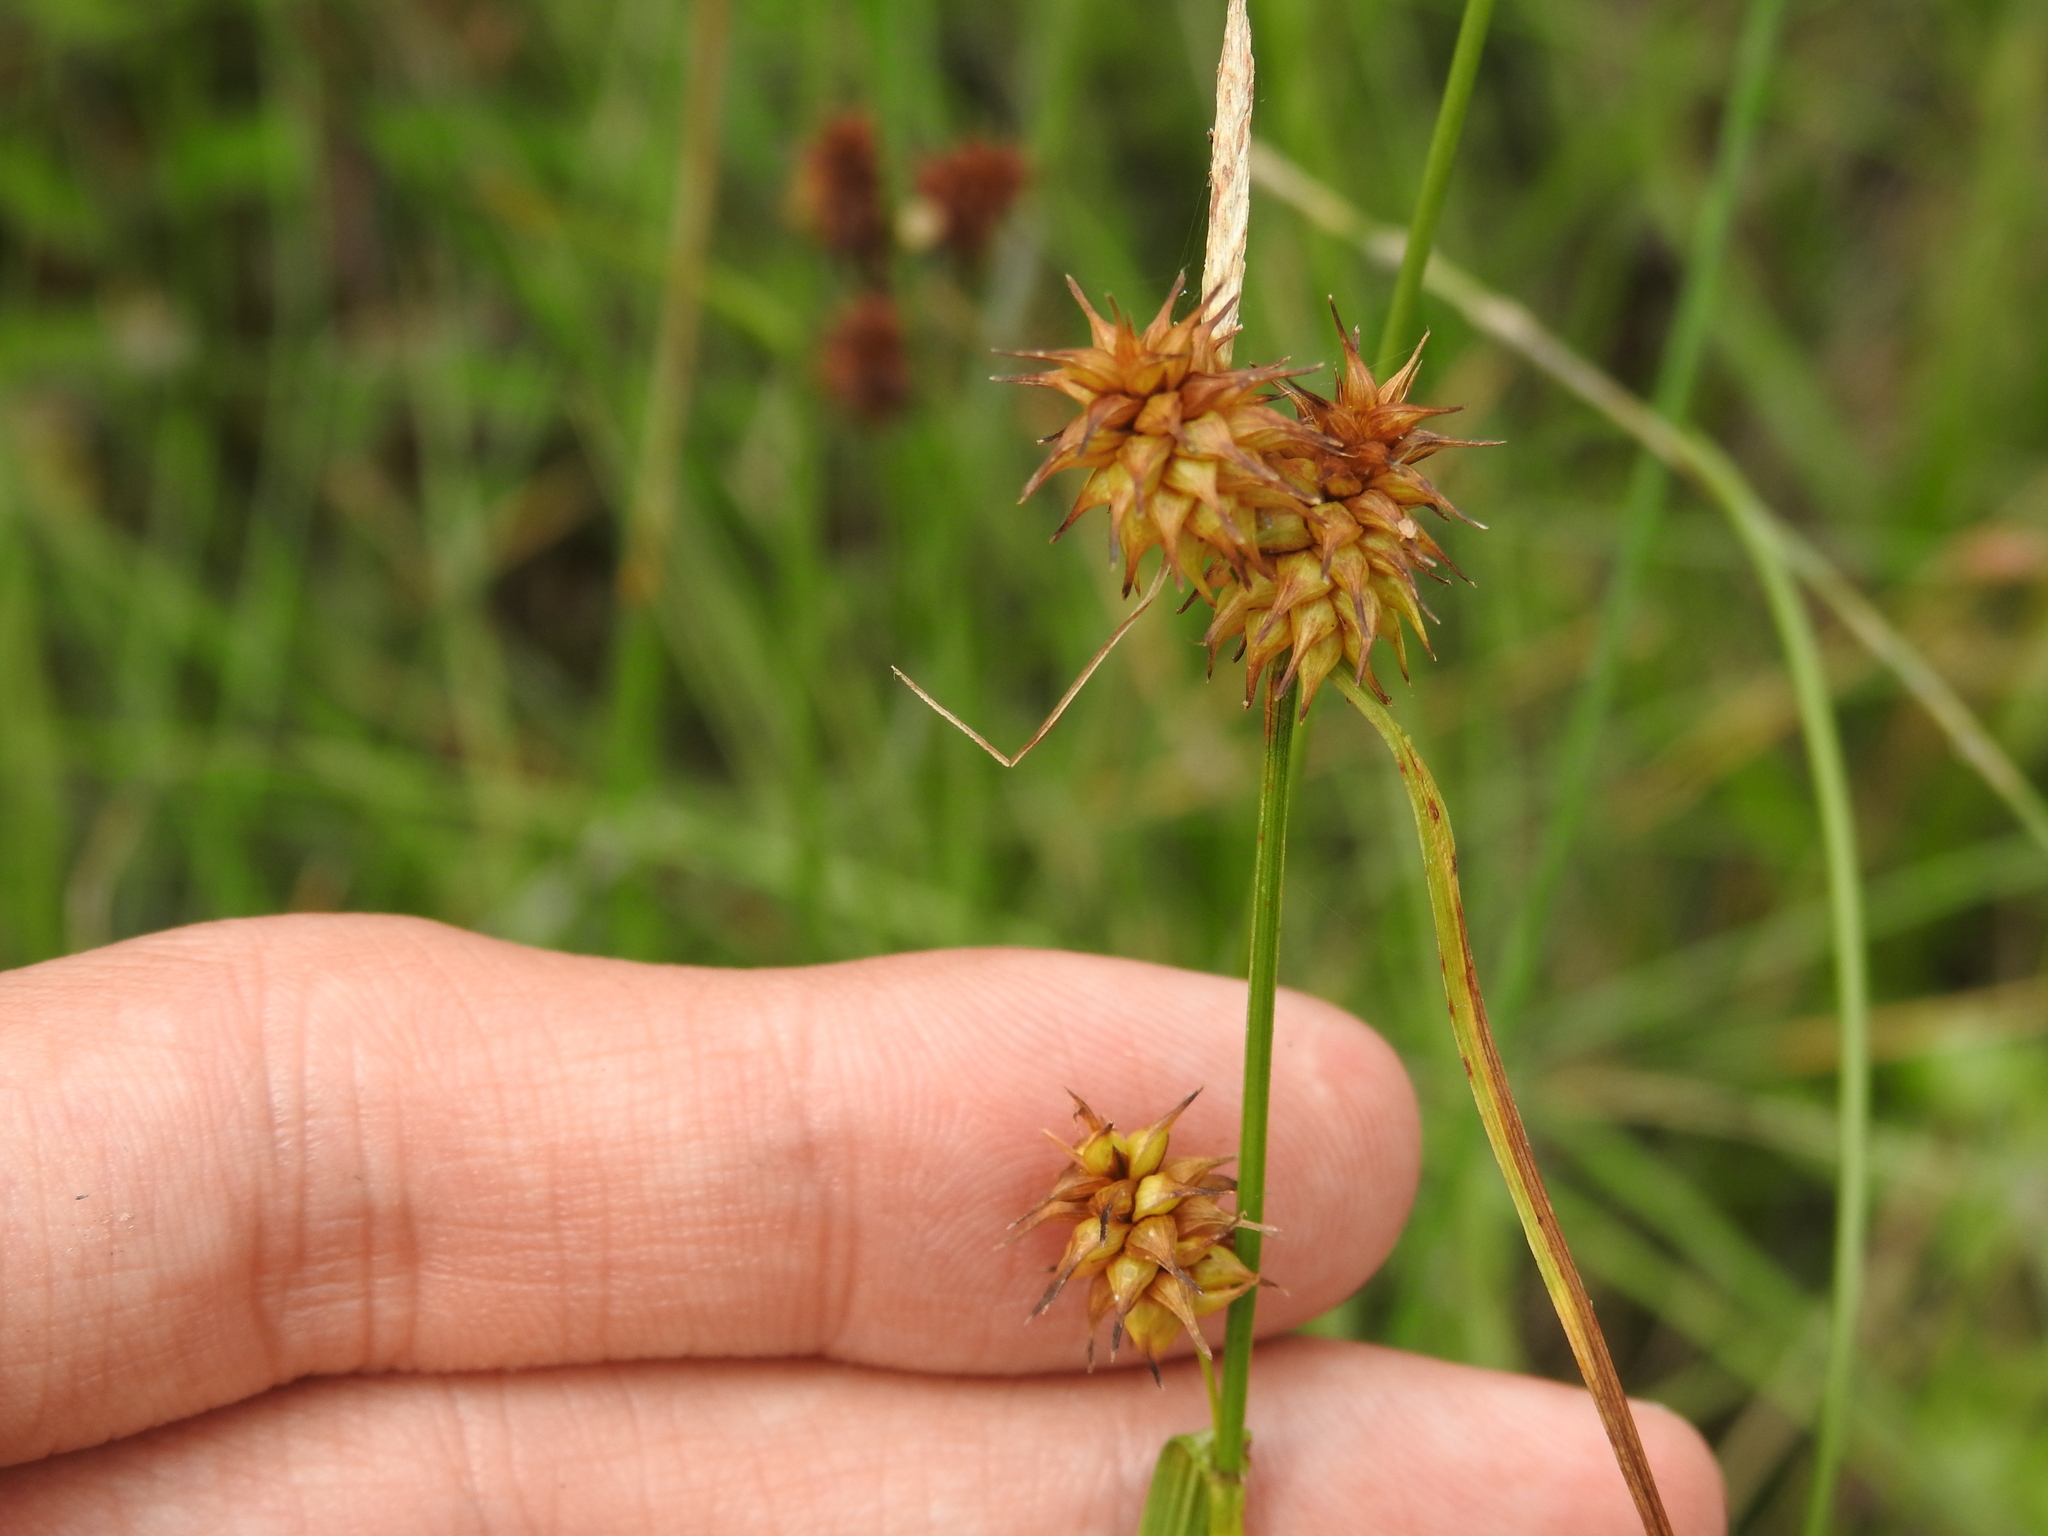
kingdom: Plantae
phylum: Tracheophyta
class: Liliopsida
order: Poales
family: Cyperaceae
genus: Carex
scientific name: Carex flava
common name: Large yellow-sedge
